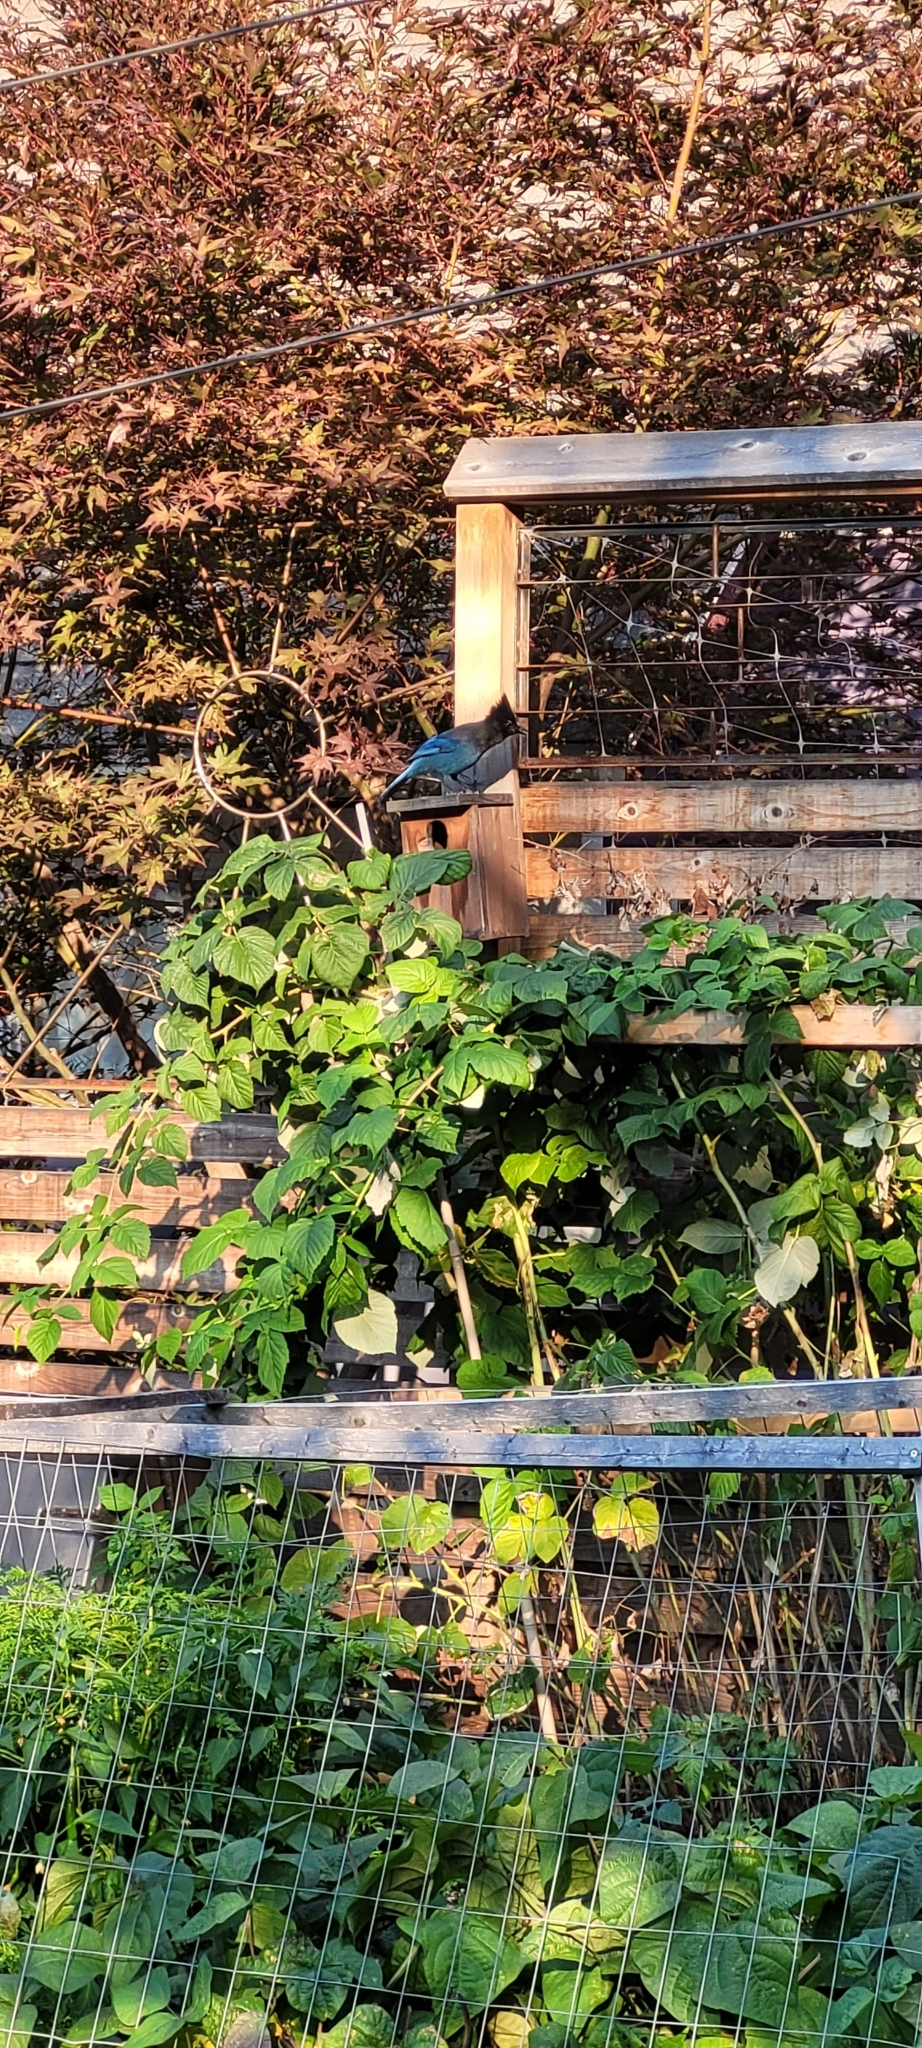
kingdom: Animalia
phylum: Chordata
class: Aves
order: Passeriformes
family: Corvidae
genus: Cyanocitta
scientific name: Cyanocitta stelleri
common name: Steller's jay
